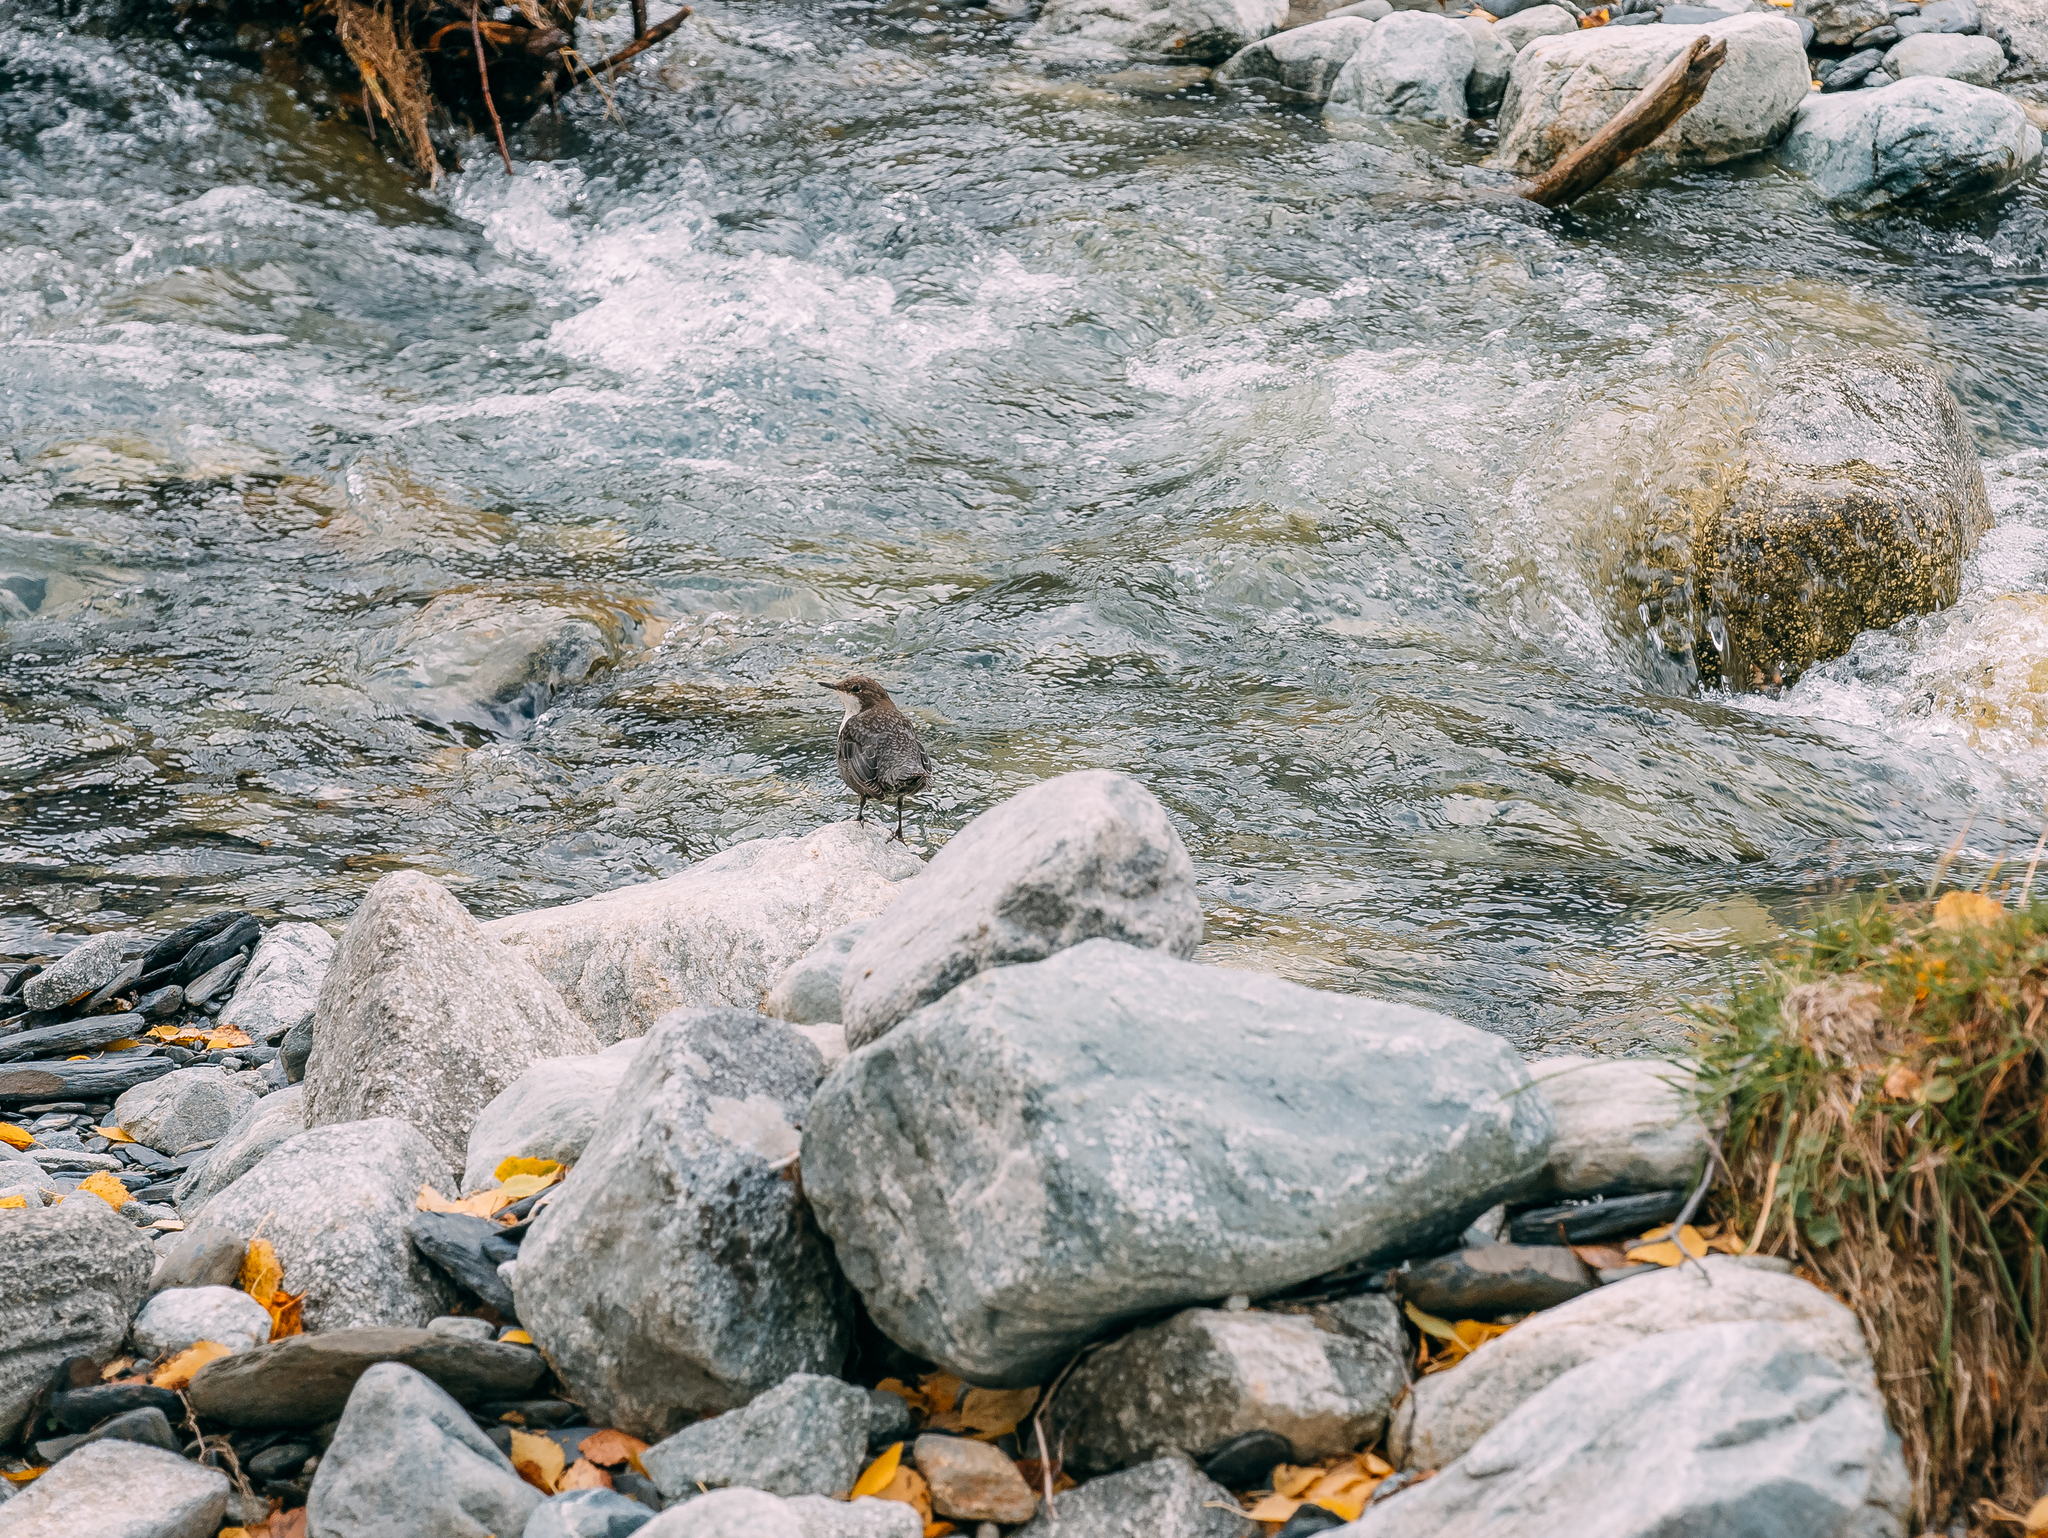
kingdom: Animalia
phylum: Chordata
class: Aves
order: Passeriformes
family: Cinclidae
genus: Cinclus
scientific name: Cinclus cinclus
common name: White-throated dipper
